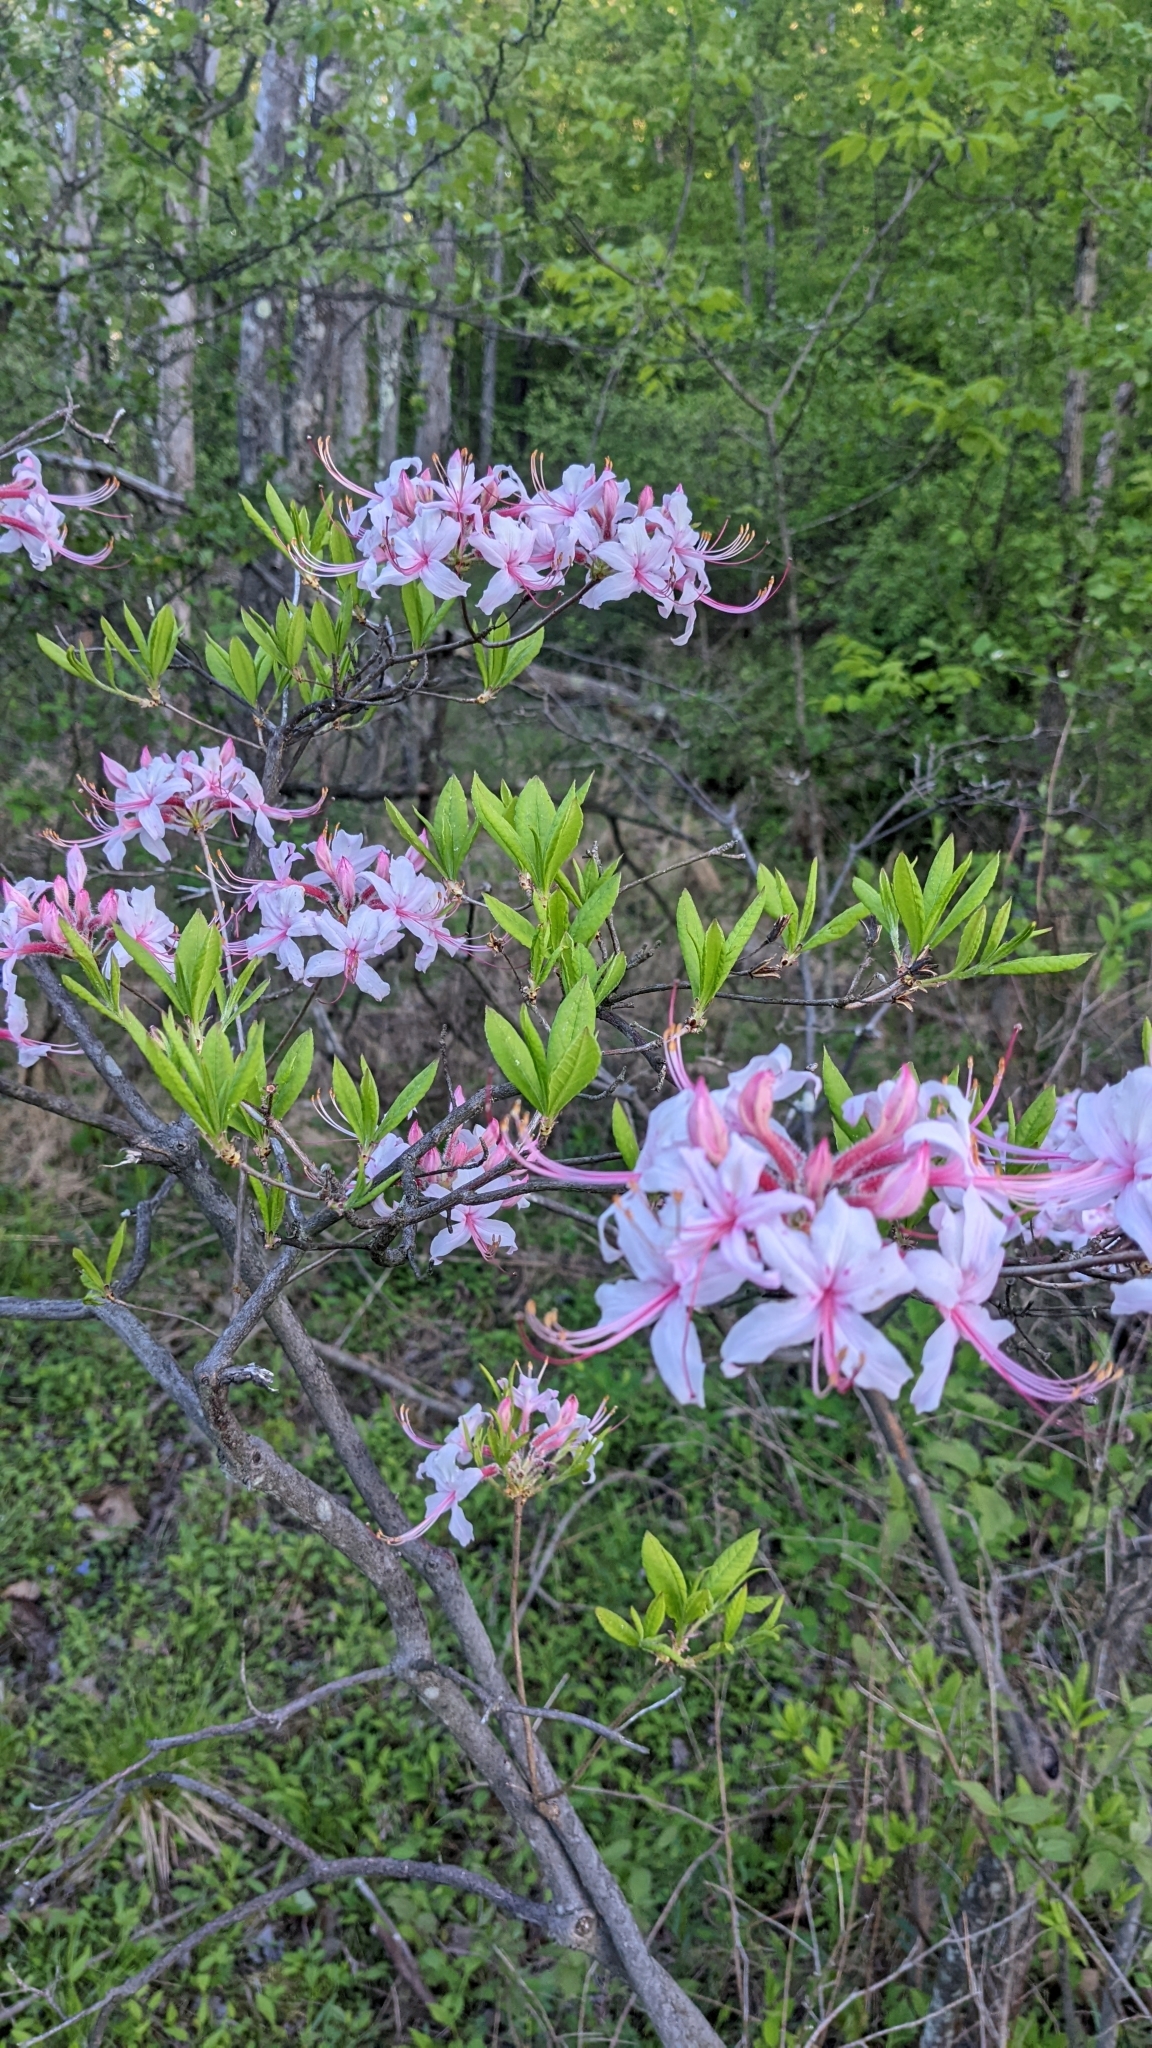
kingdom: Plantae
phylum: Tracheophyta
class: Magnoliopsida
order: Ericales
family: Ericaceae
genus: Rhododendron
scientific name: Rhododendron periclymenoides
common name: Election-pink
